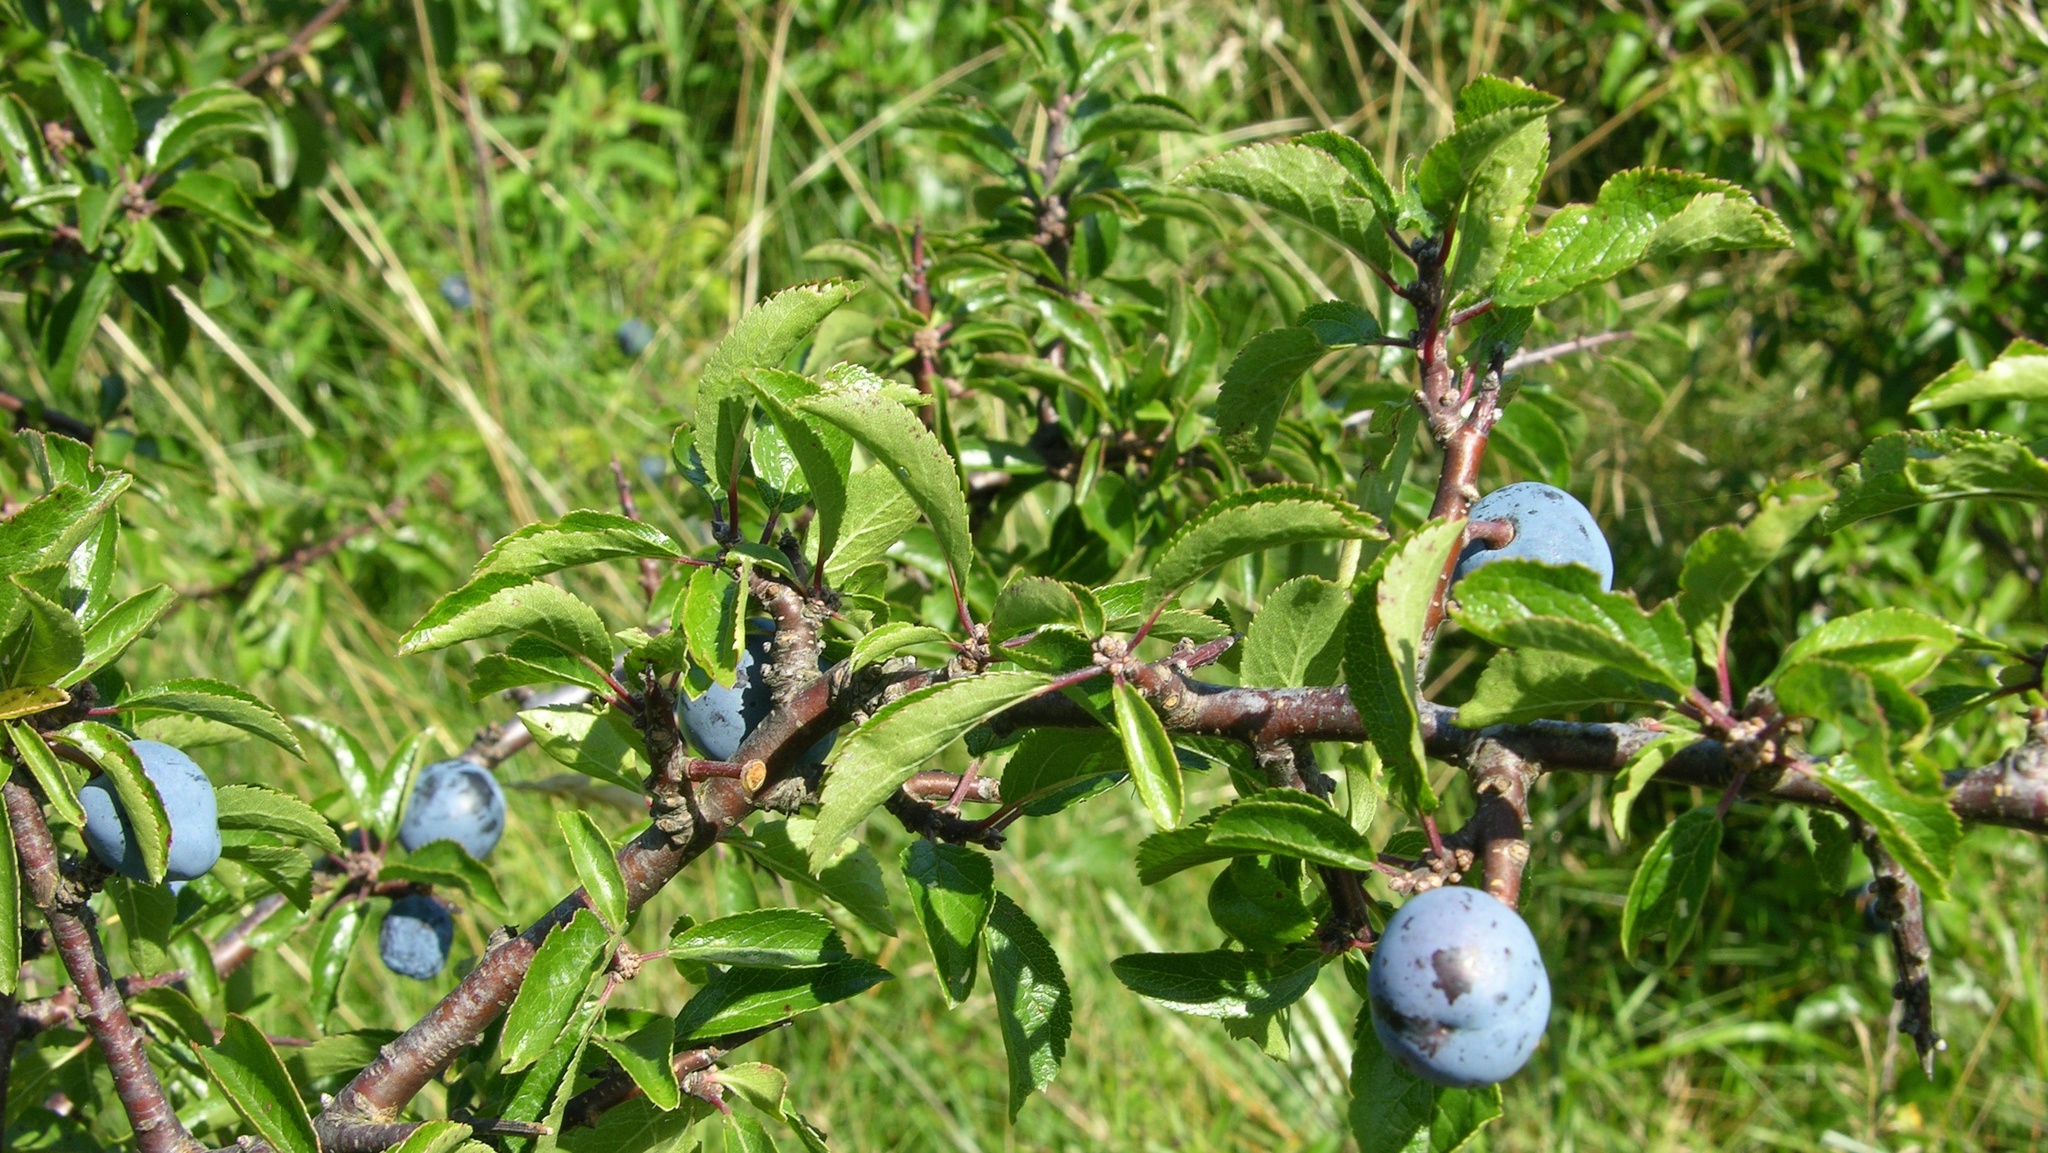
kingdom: Plantae
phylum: Tracheophyta
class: Magnoliopsida
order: Rosales
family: Rosaceae
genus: Prunus
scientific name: Prunus spinosa
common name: Blackthorn
